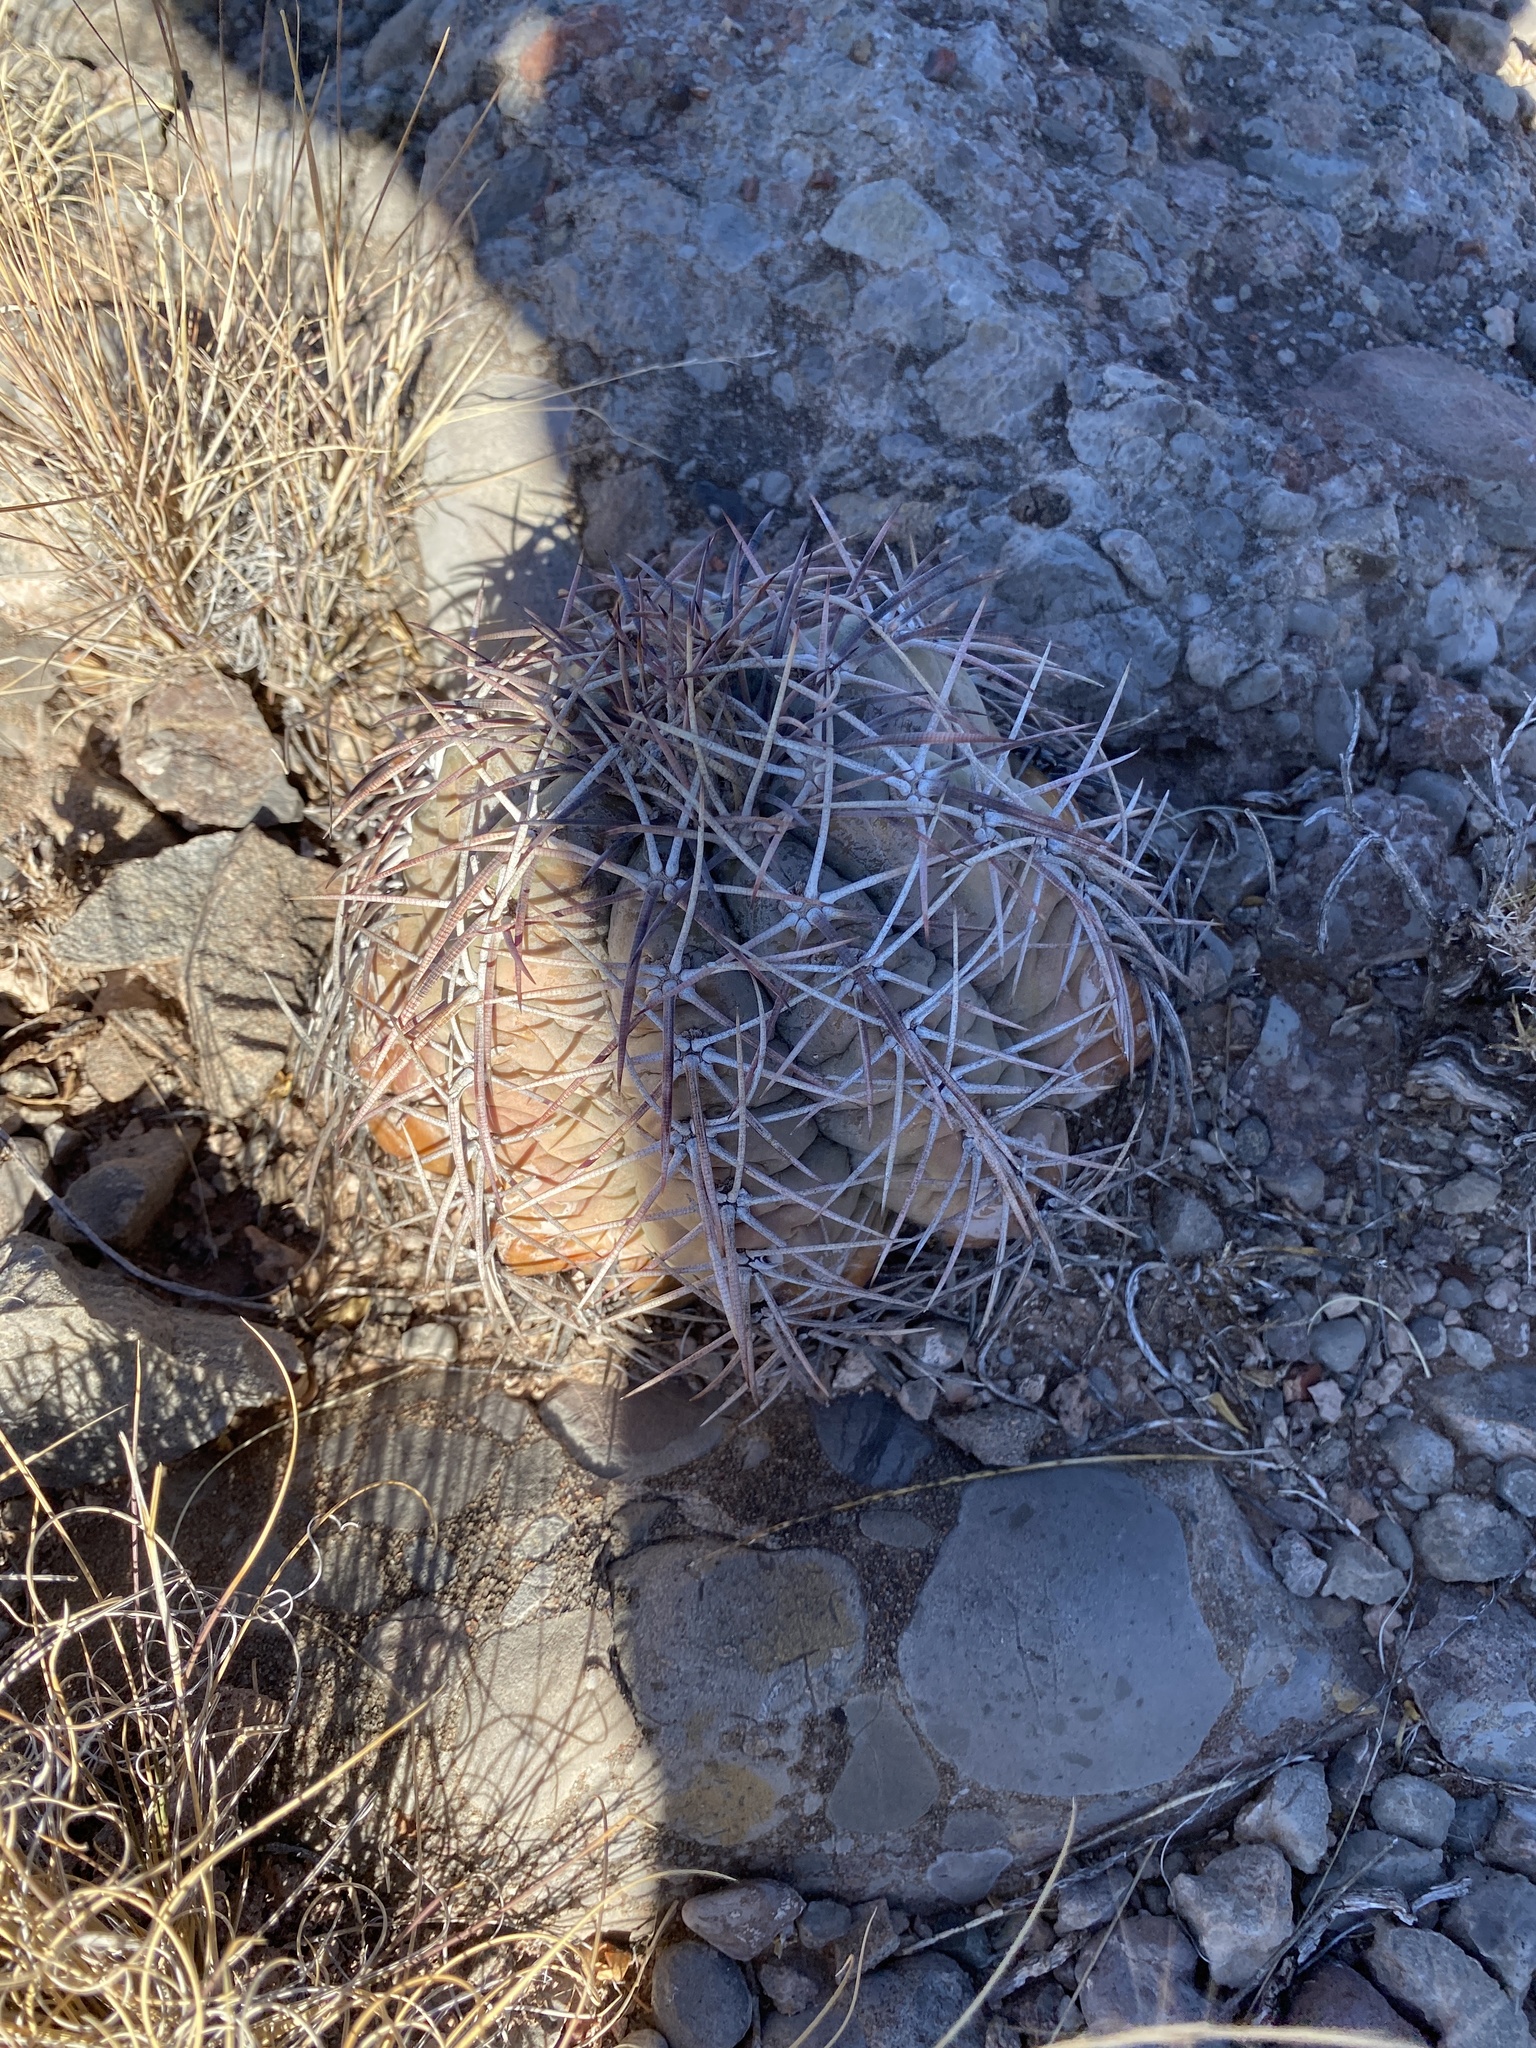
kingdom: Plantae
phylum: Tracheophyta
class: Magnoliopsida
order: Caryophyllales
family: Cactaceae
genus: Echinocactus
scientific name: Echinocactus horizonthalonius
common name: Devilshead
